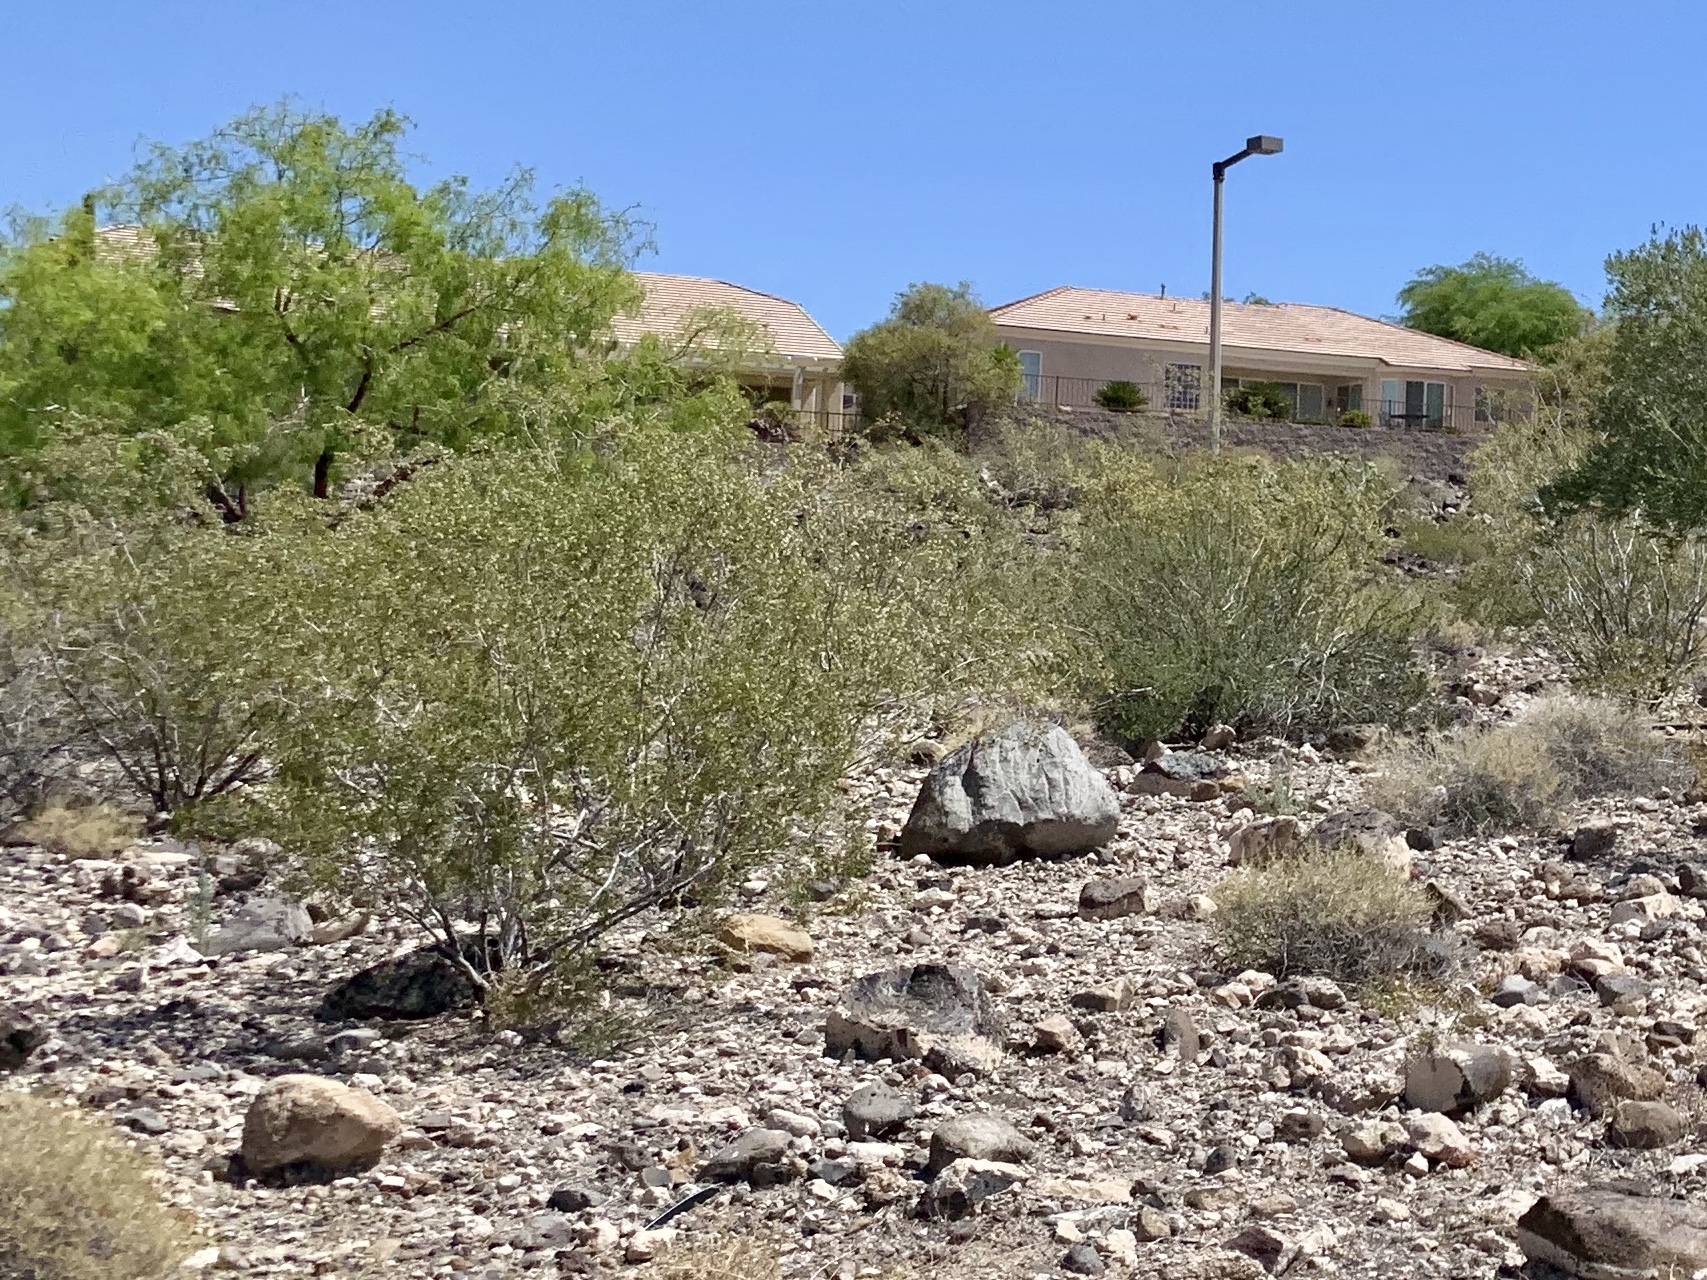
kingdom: Plantae
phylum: Tracheophyta
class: Magnoliopsida
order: Zygophyllales
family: Zygophyllaceae
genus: Larrea
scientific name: Larrea tridentata
